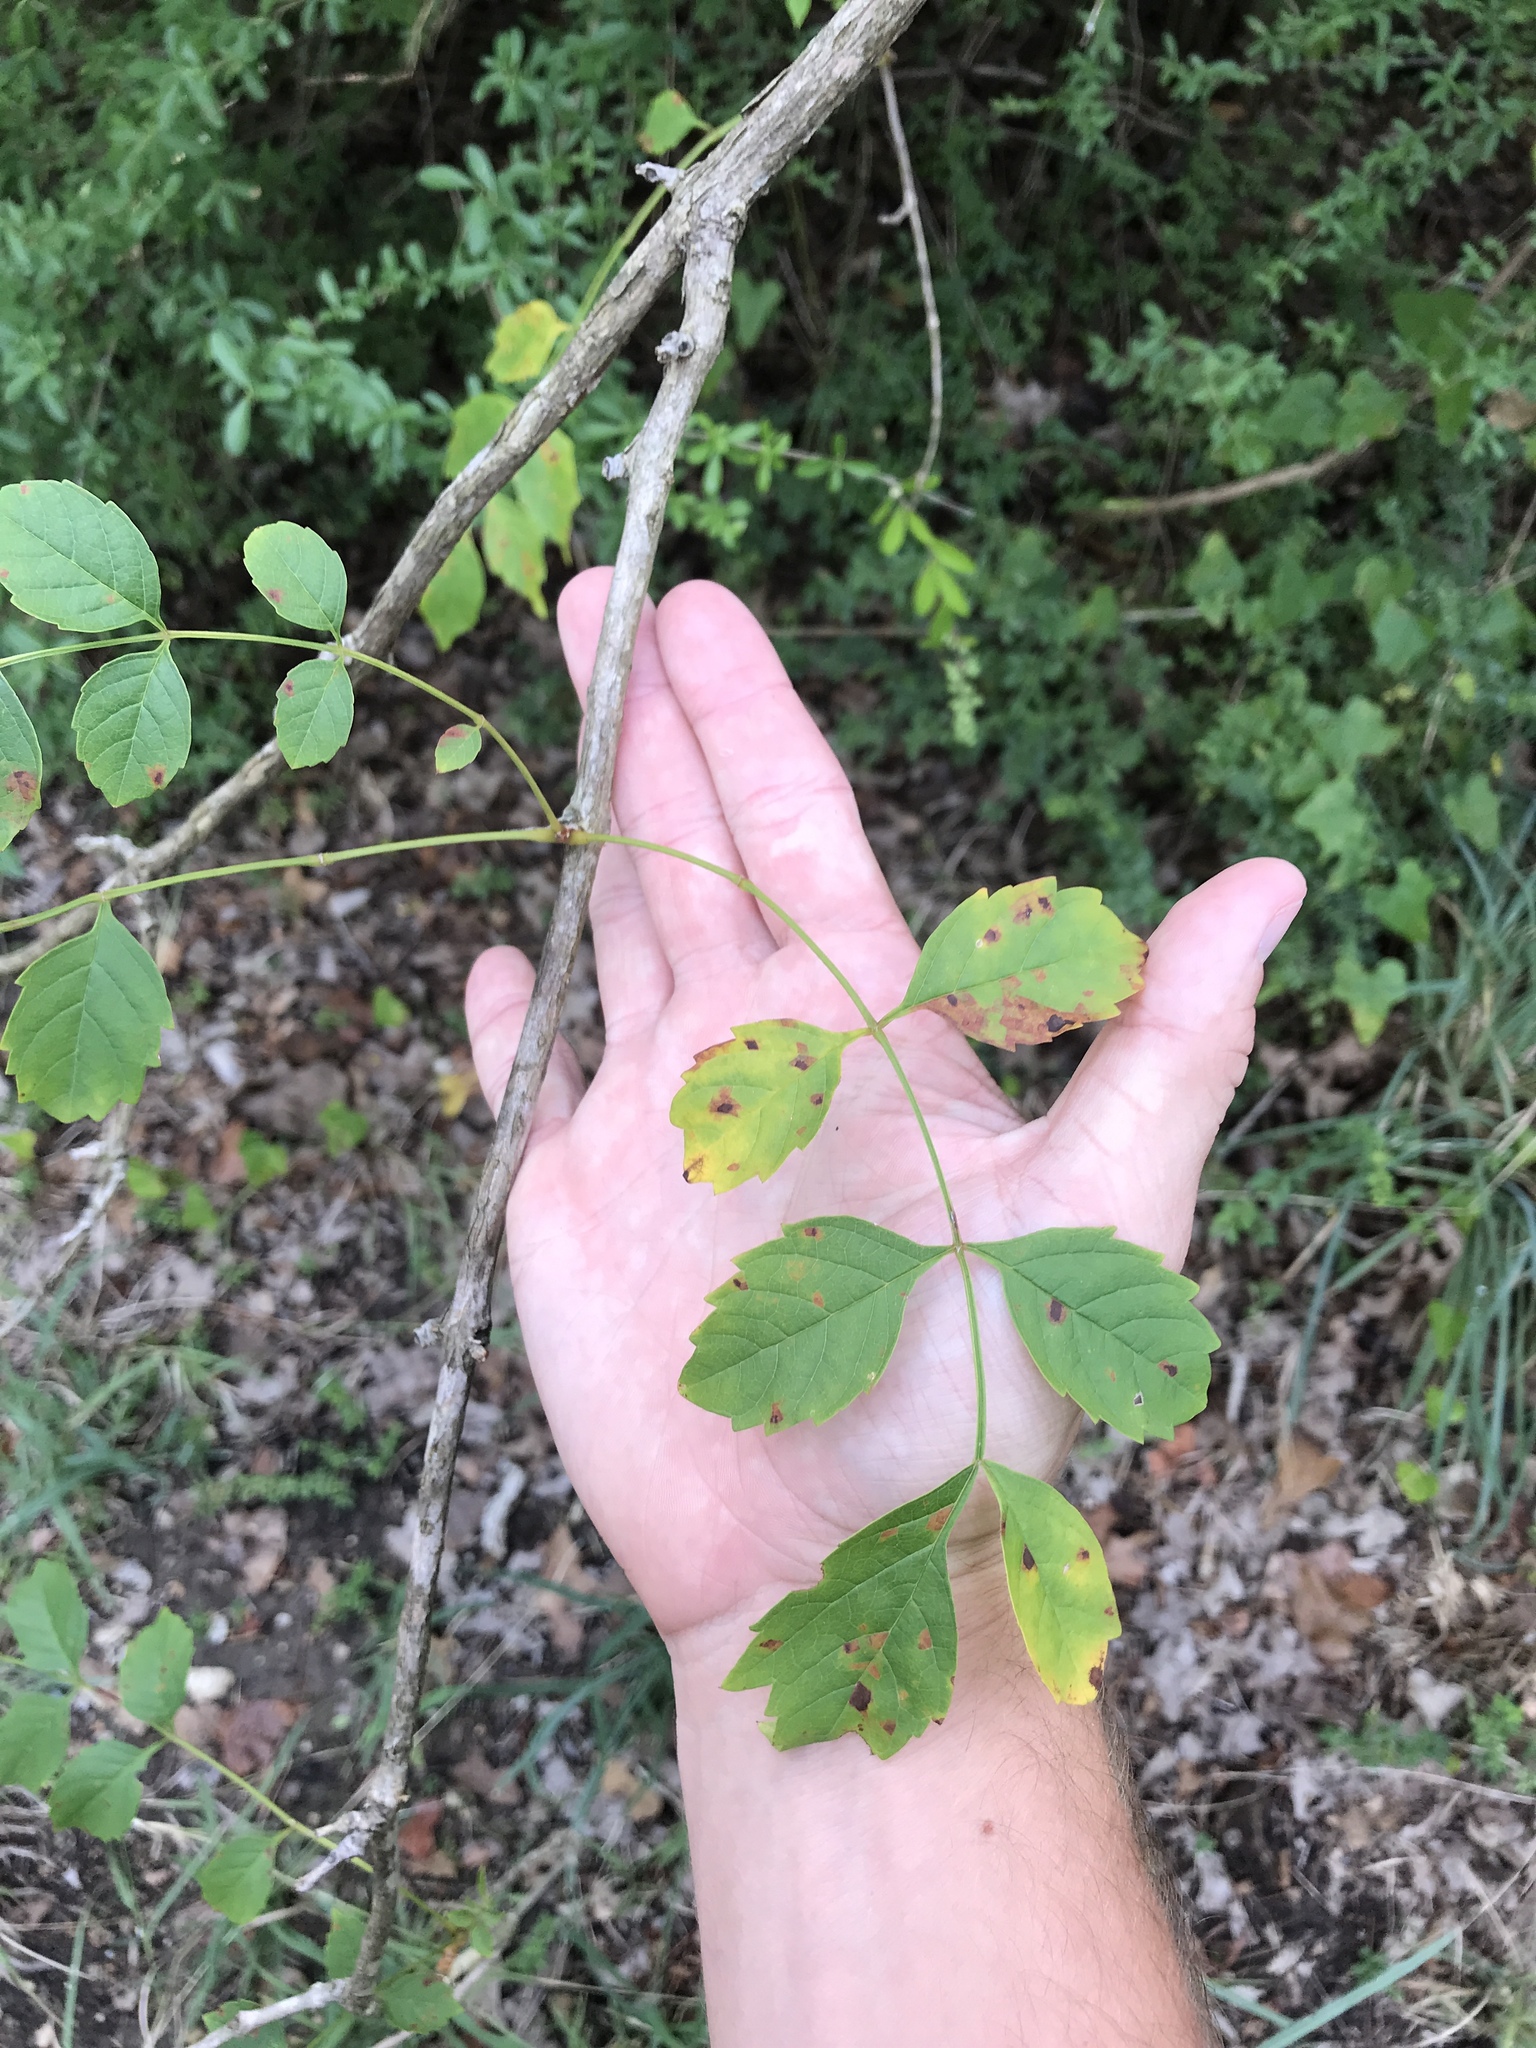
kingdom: Plantae
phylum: Tracheophyta
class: Magnoliopsida
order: Lamiales
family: Bignoniaceae
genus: Campsis
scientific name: Campsis radicans
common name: Trumpet-creeper
